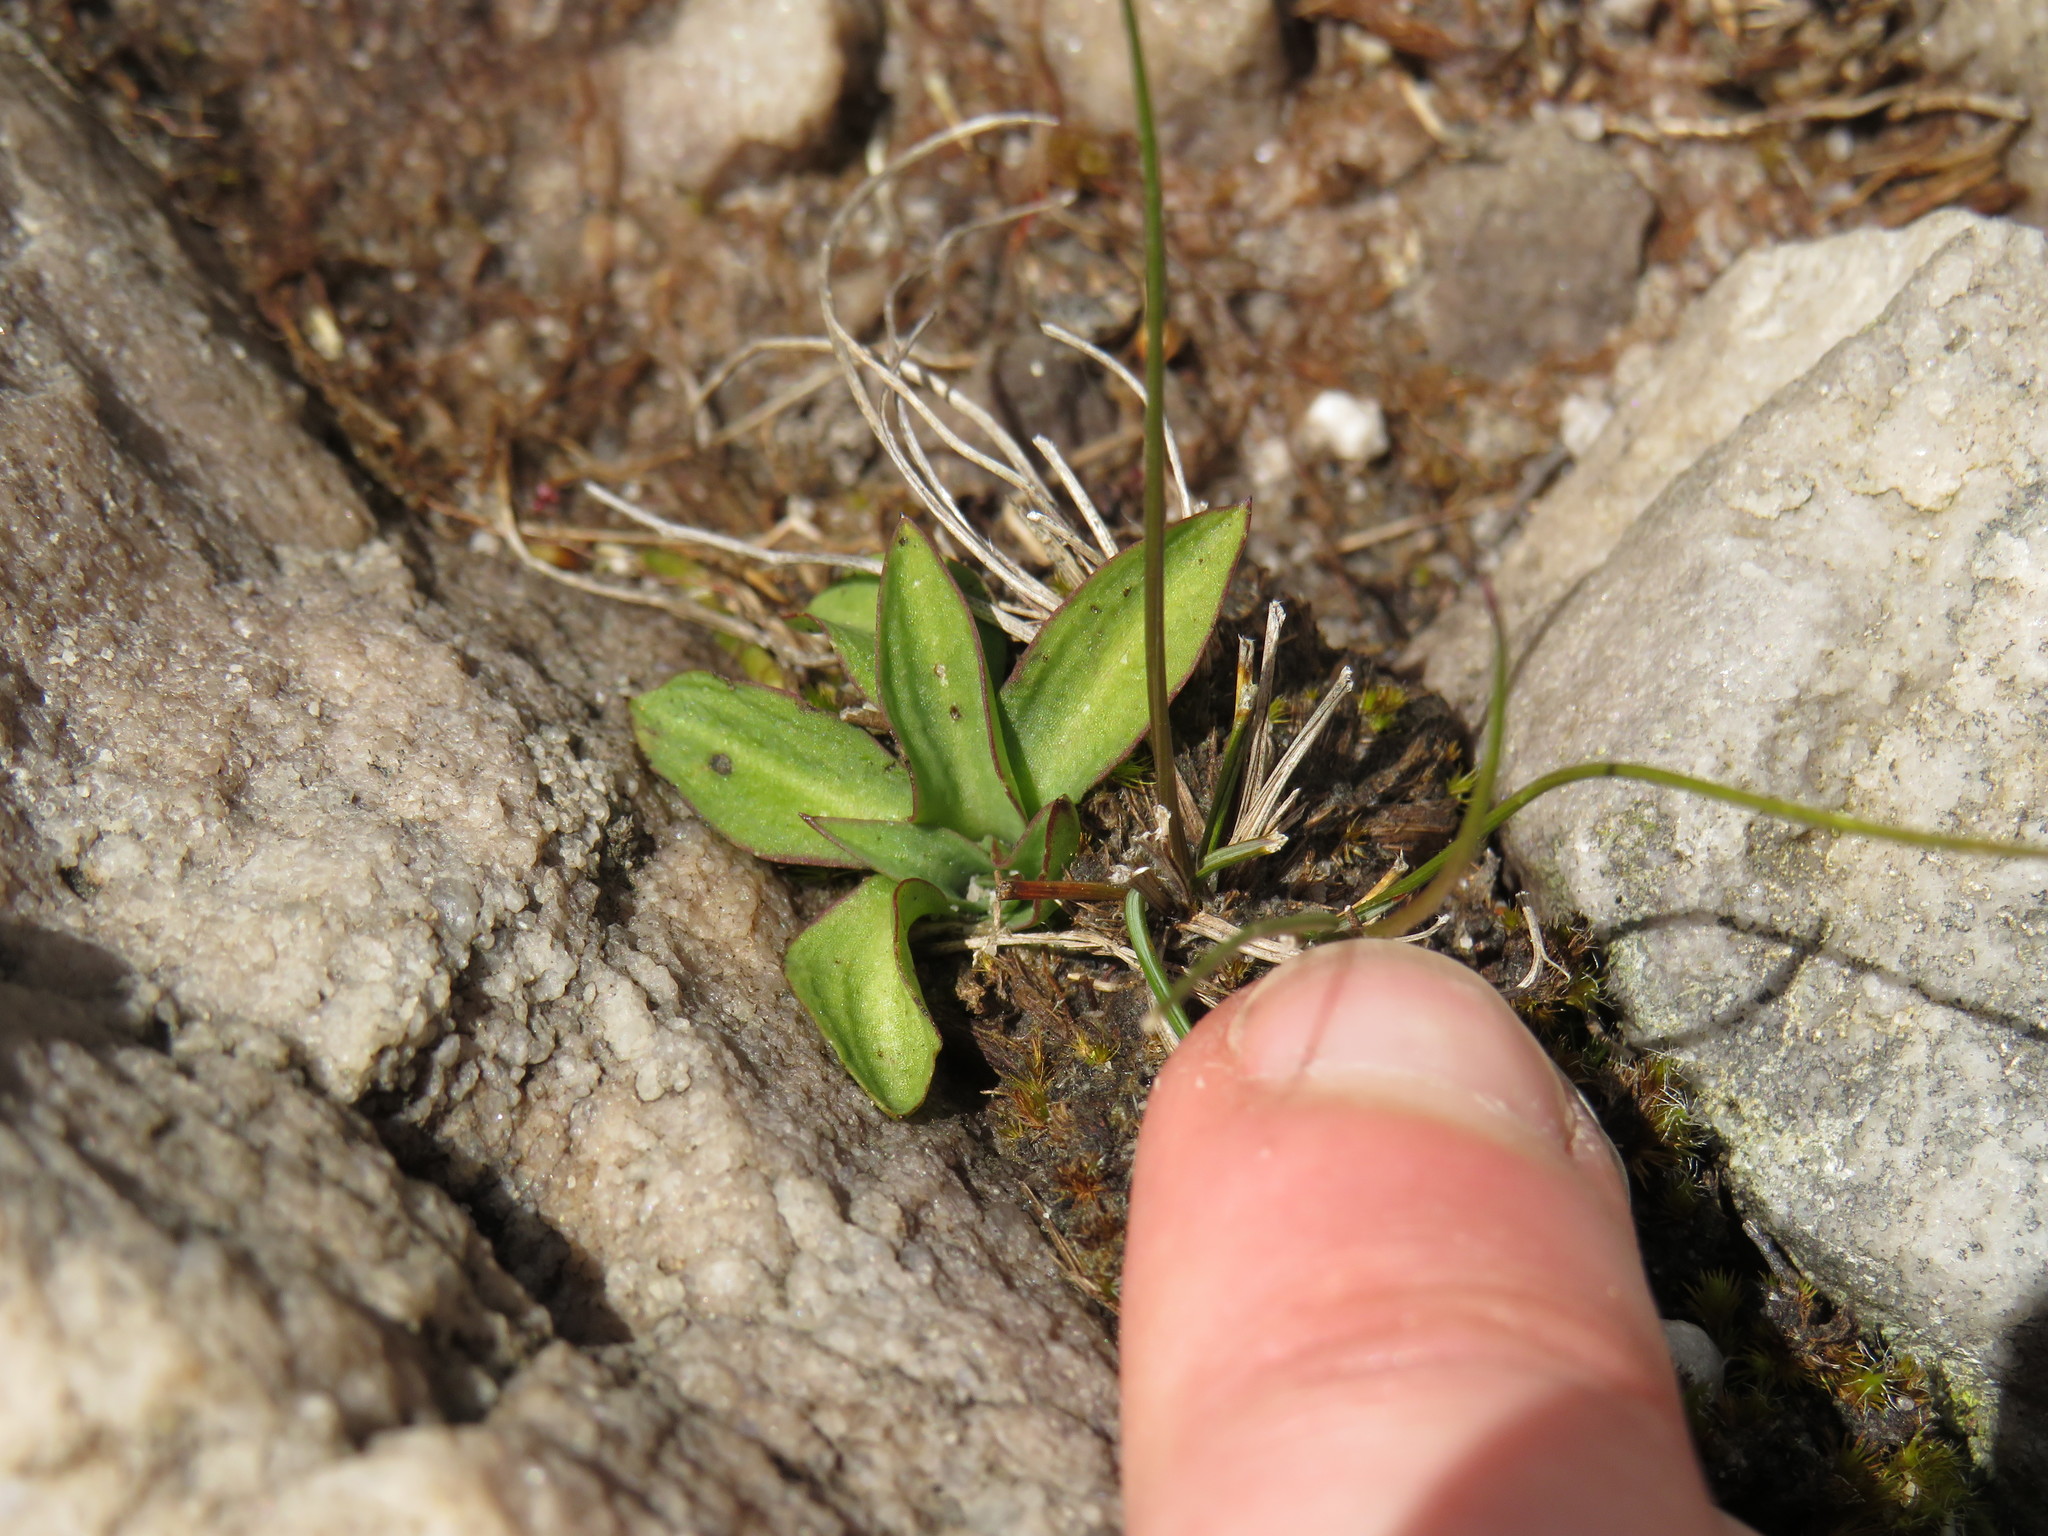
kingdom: Plantae
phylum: Tracheophyta
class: Liliopsida
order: Asparagales
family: Orchidaceae
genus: Disa
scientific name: Disa obliqua
